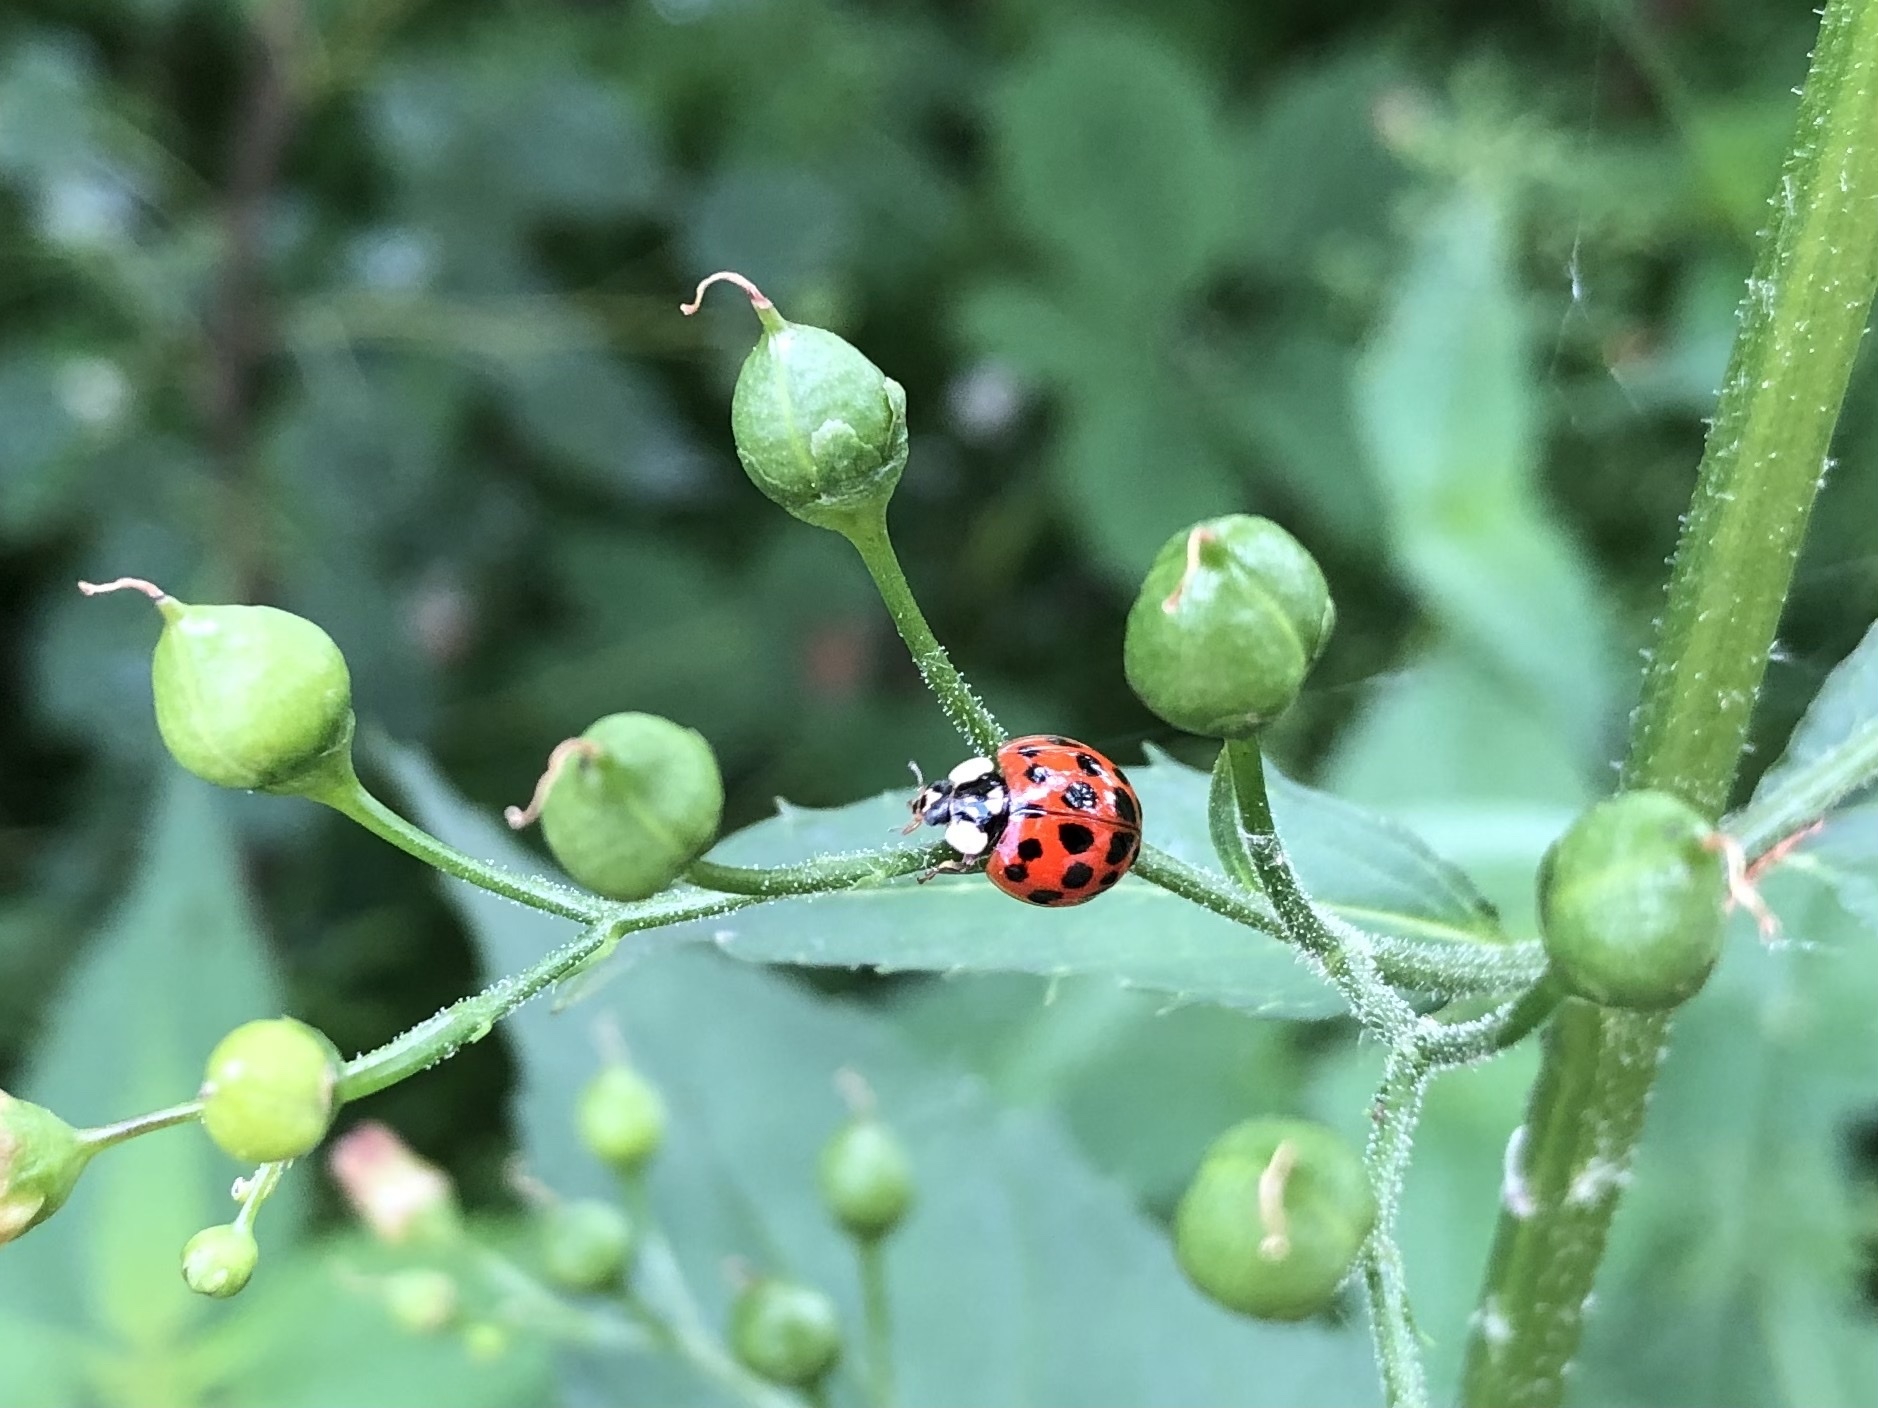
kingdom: Animalia
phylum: Arthropoda
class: Insecta
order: Coleoptera
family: Coccinellidae
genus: Harmonia
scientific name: Harmonia axyridis
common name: Harlequin ladybird
